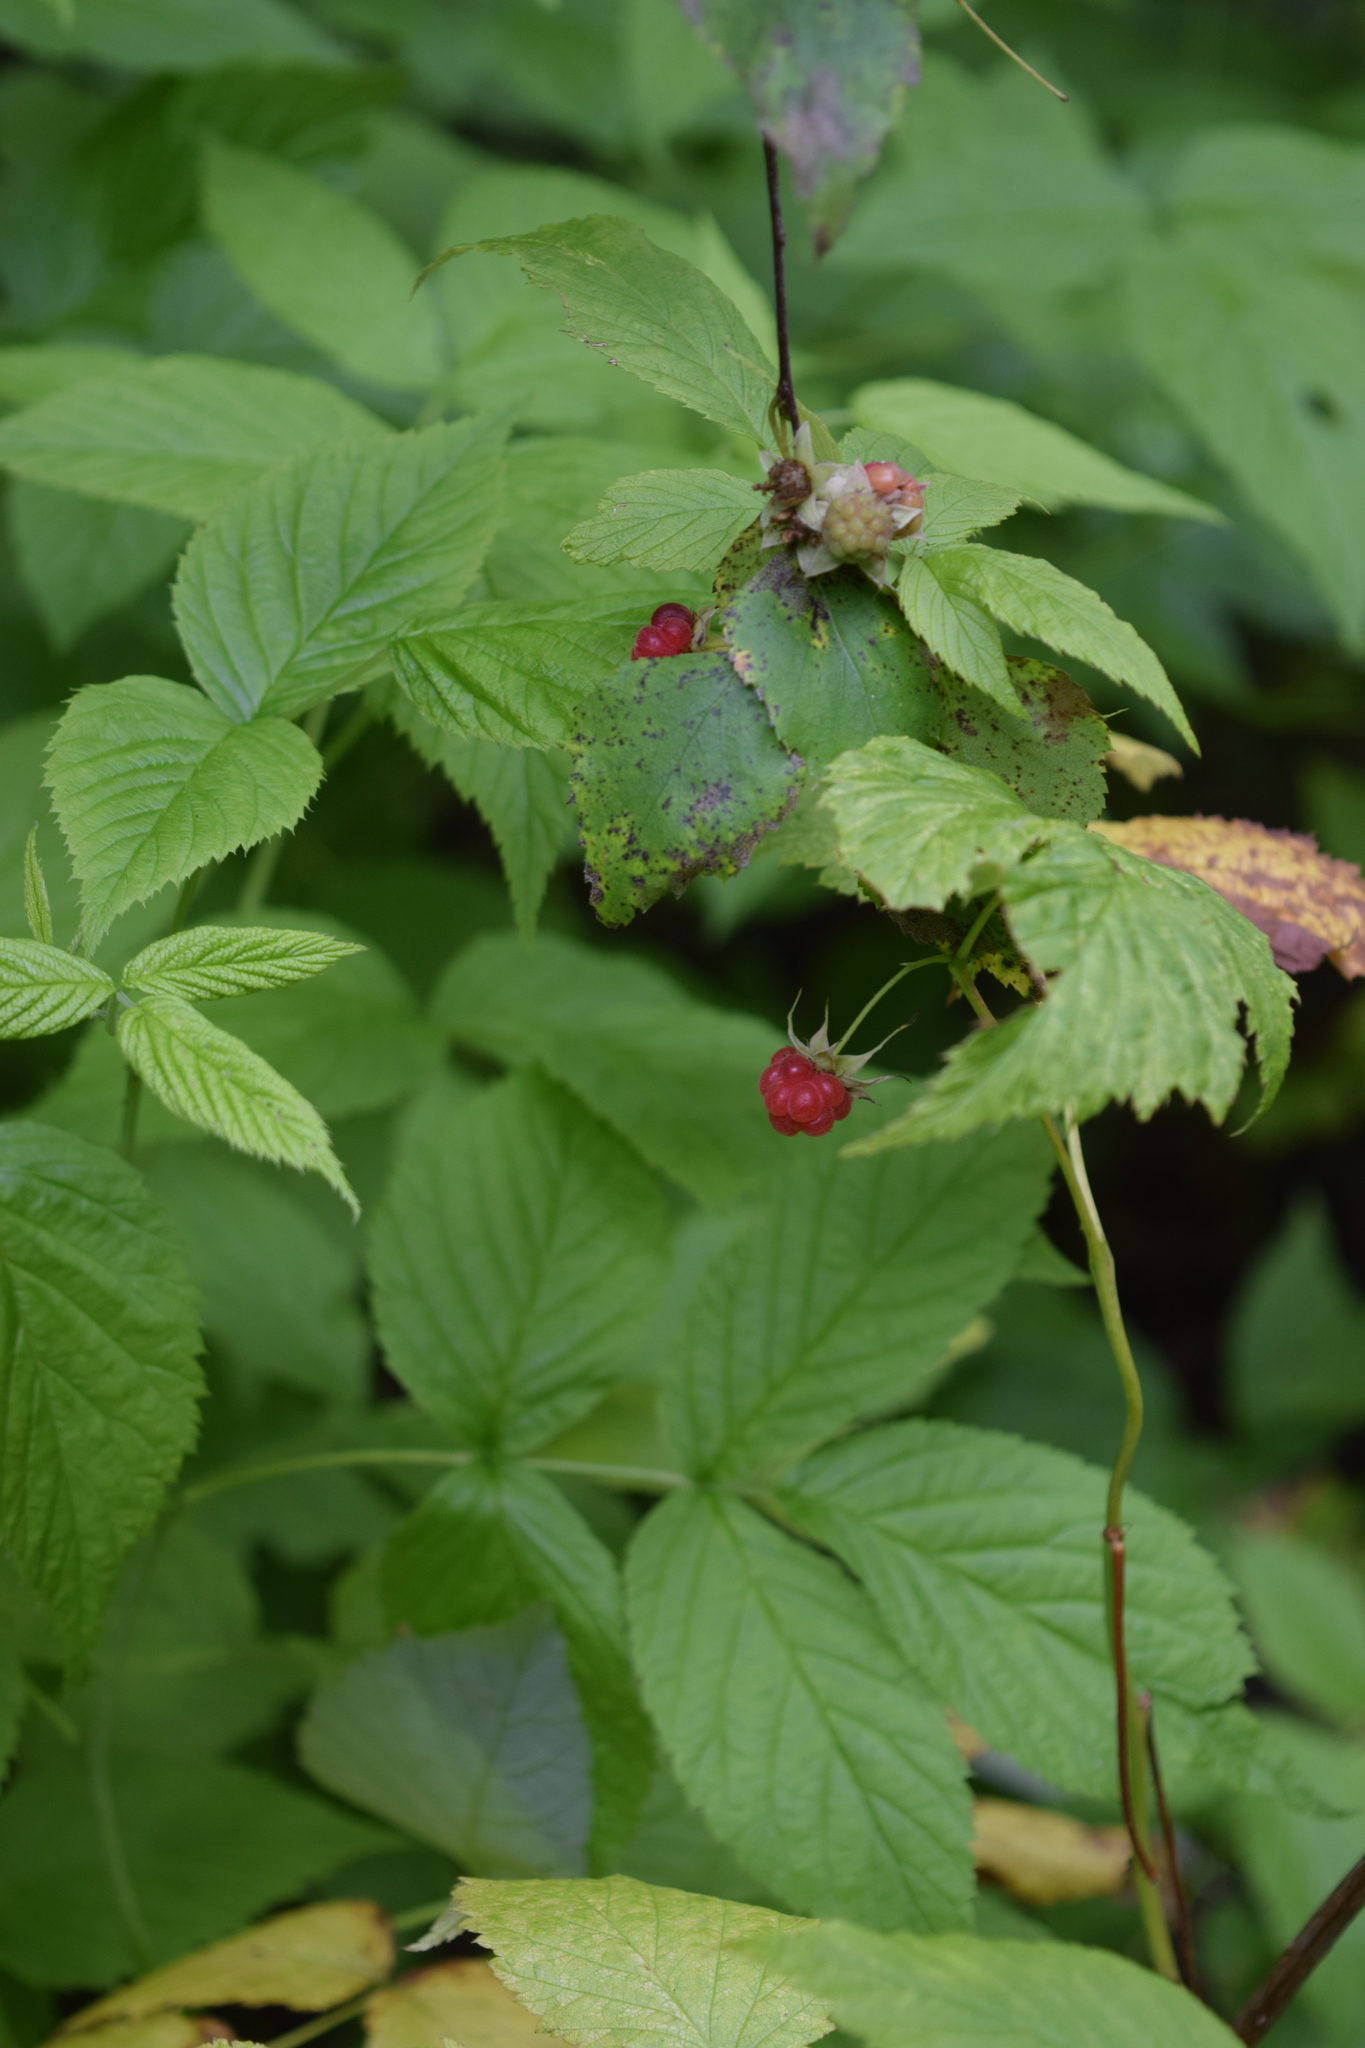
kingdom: Plantae
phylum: Tracheophyta
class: Magnoliopsida
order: Rosales
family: Rosaceae
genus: Rubus
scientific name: Rubus idaeus
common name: Raspberry
